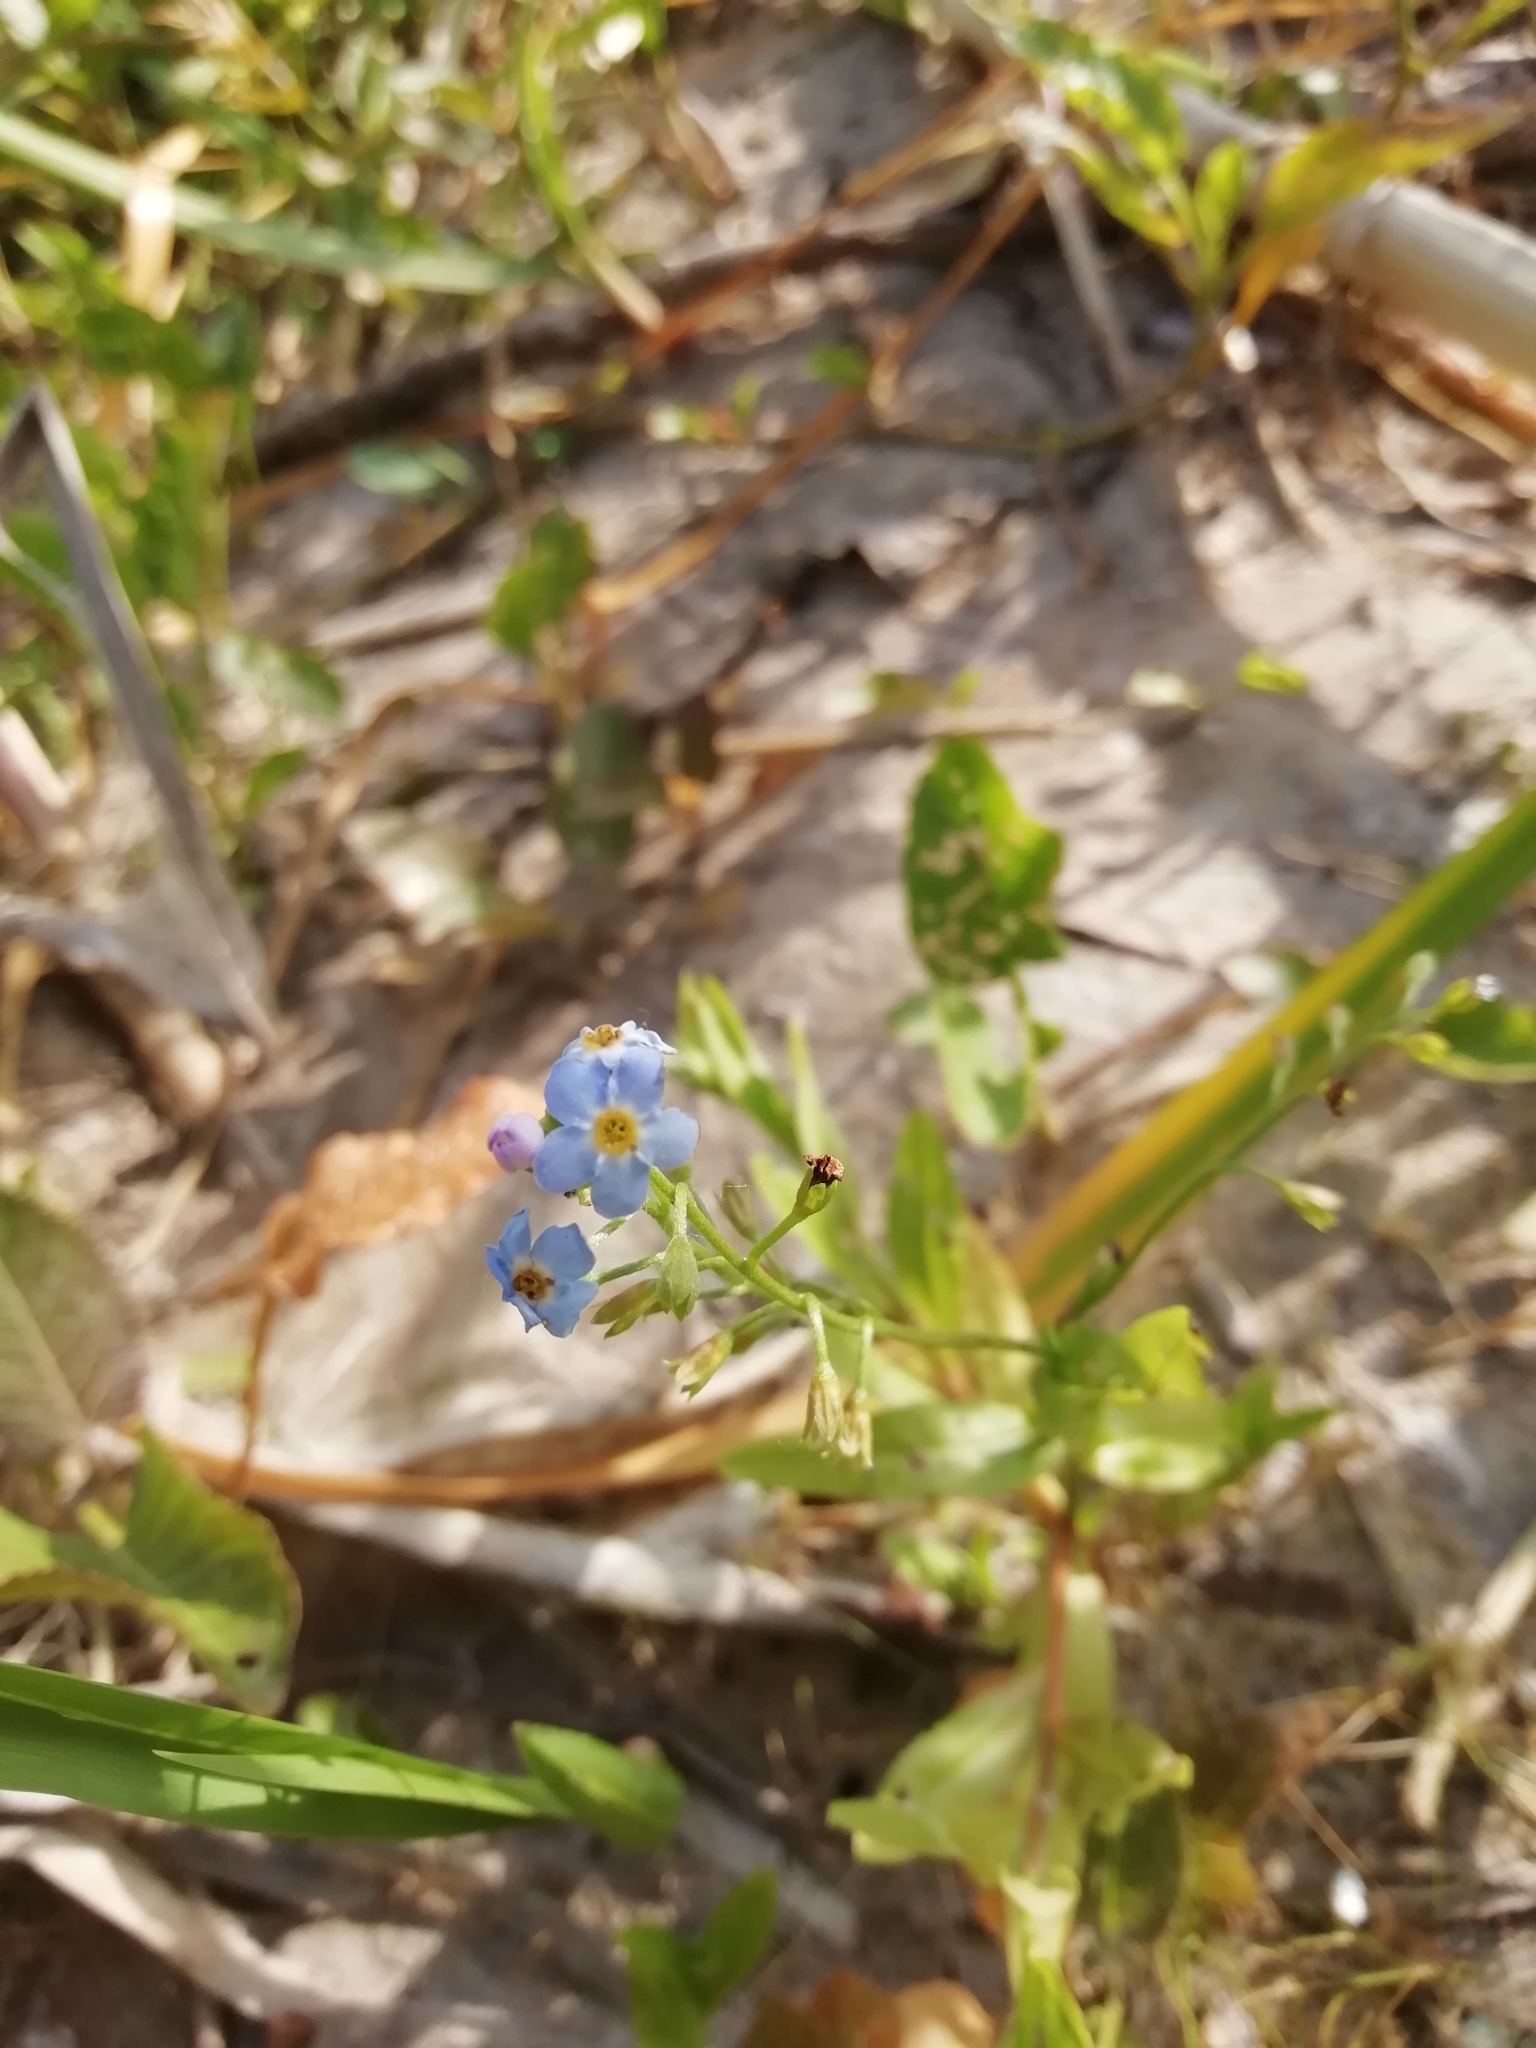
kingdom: Plantae
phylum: Tracheophyta
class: Magnoliopsida
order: Boraginales
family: Boraginaceae
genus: Myosotis
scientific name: Myosotis scorpioides
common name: Water forget-me-not
